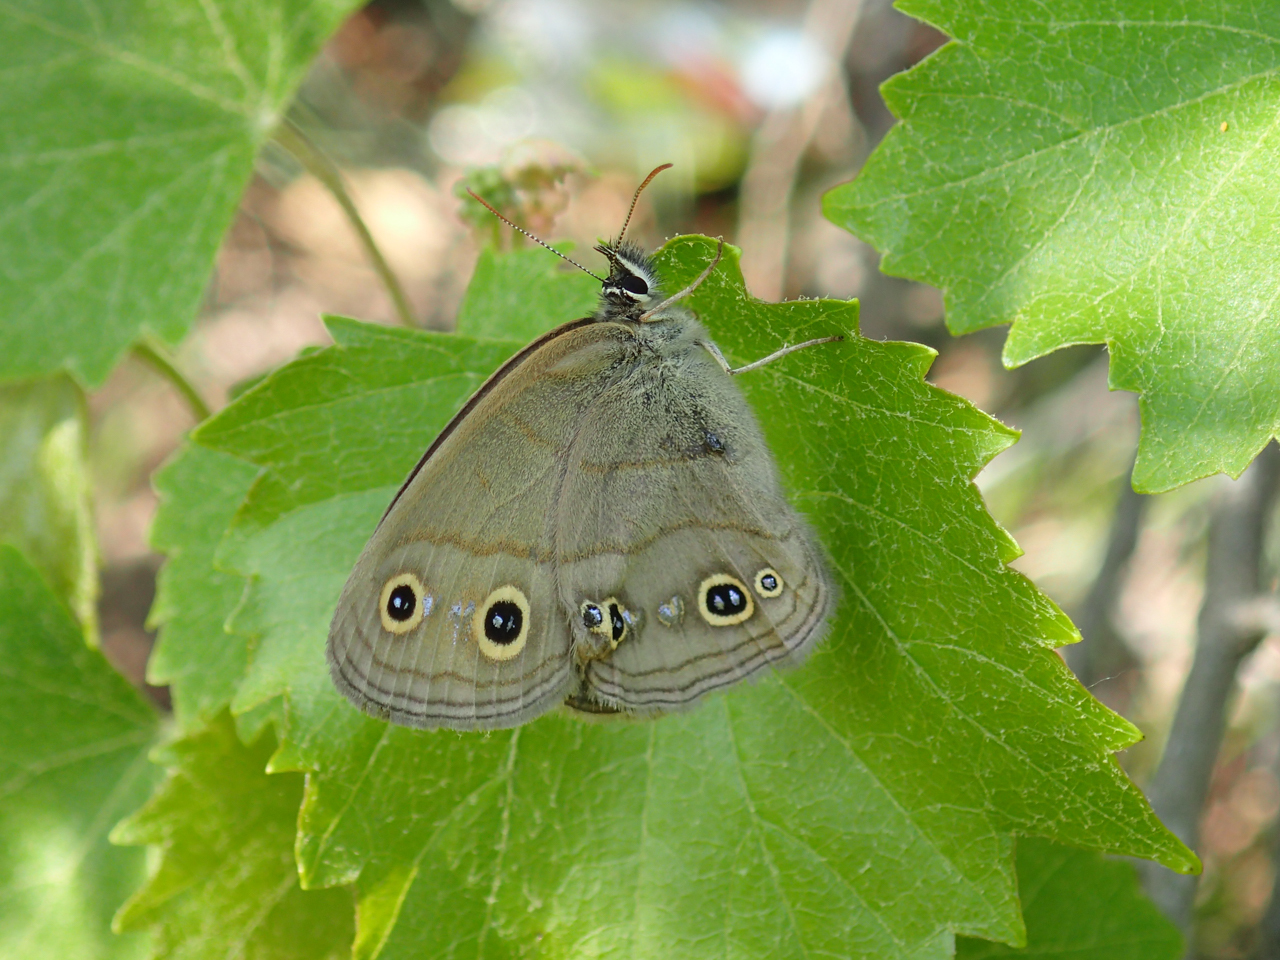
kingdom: Animalia
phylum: Arthropoda
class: Insecta
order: Lepidoptera
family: Nymphalidae
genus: Euptychia
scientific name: Euptychia cymela
